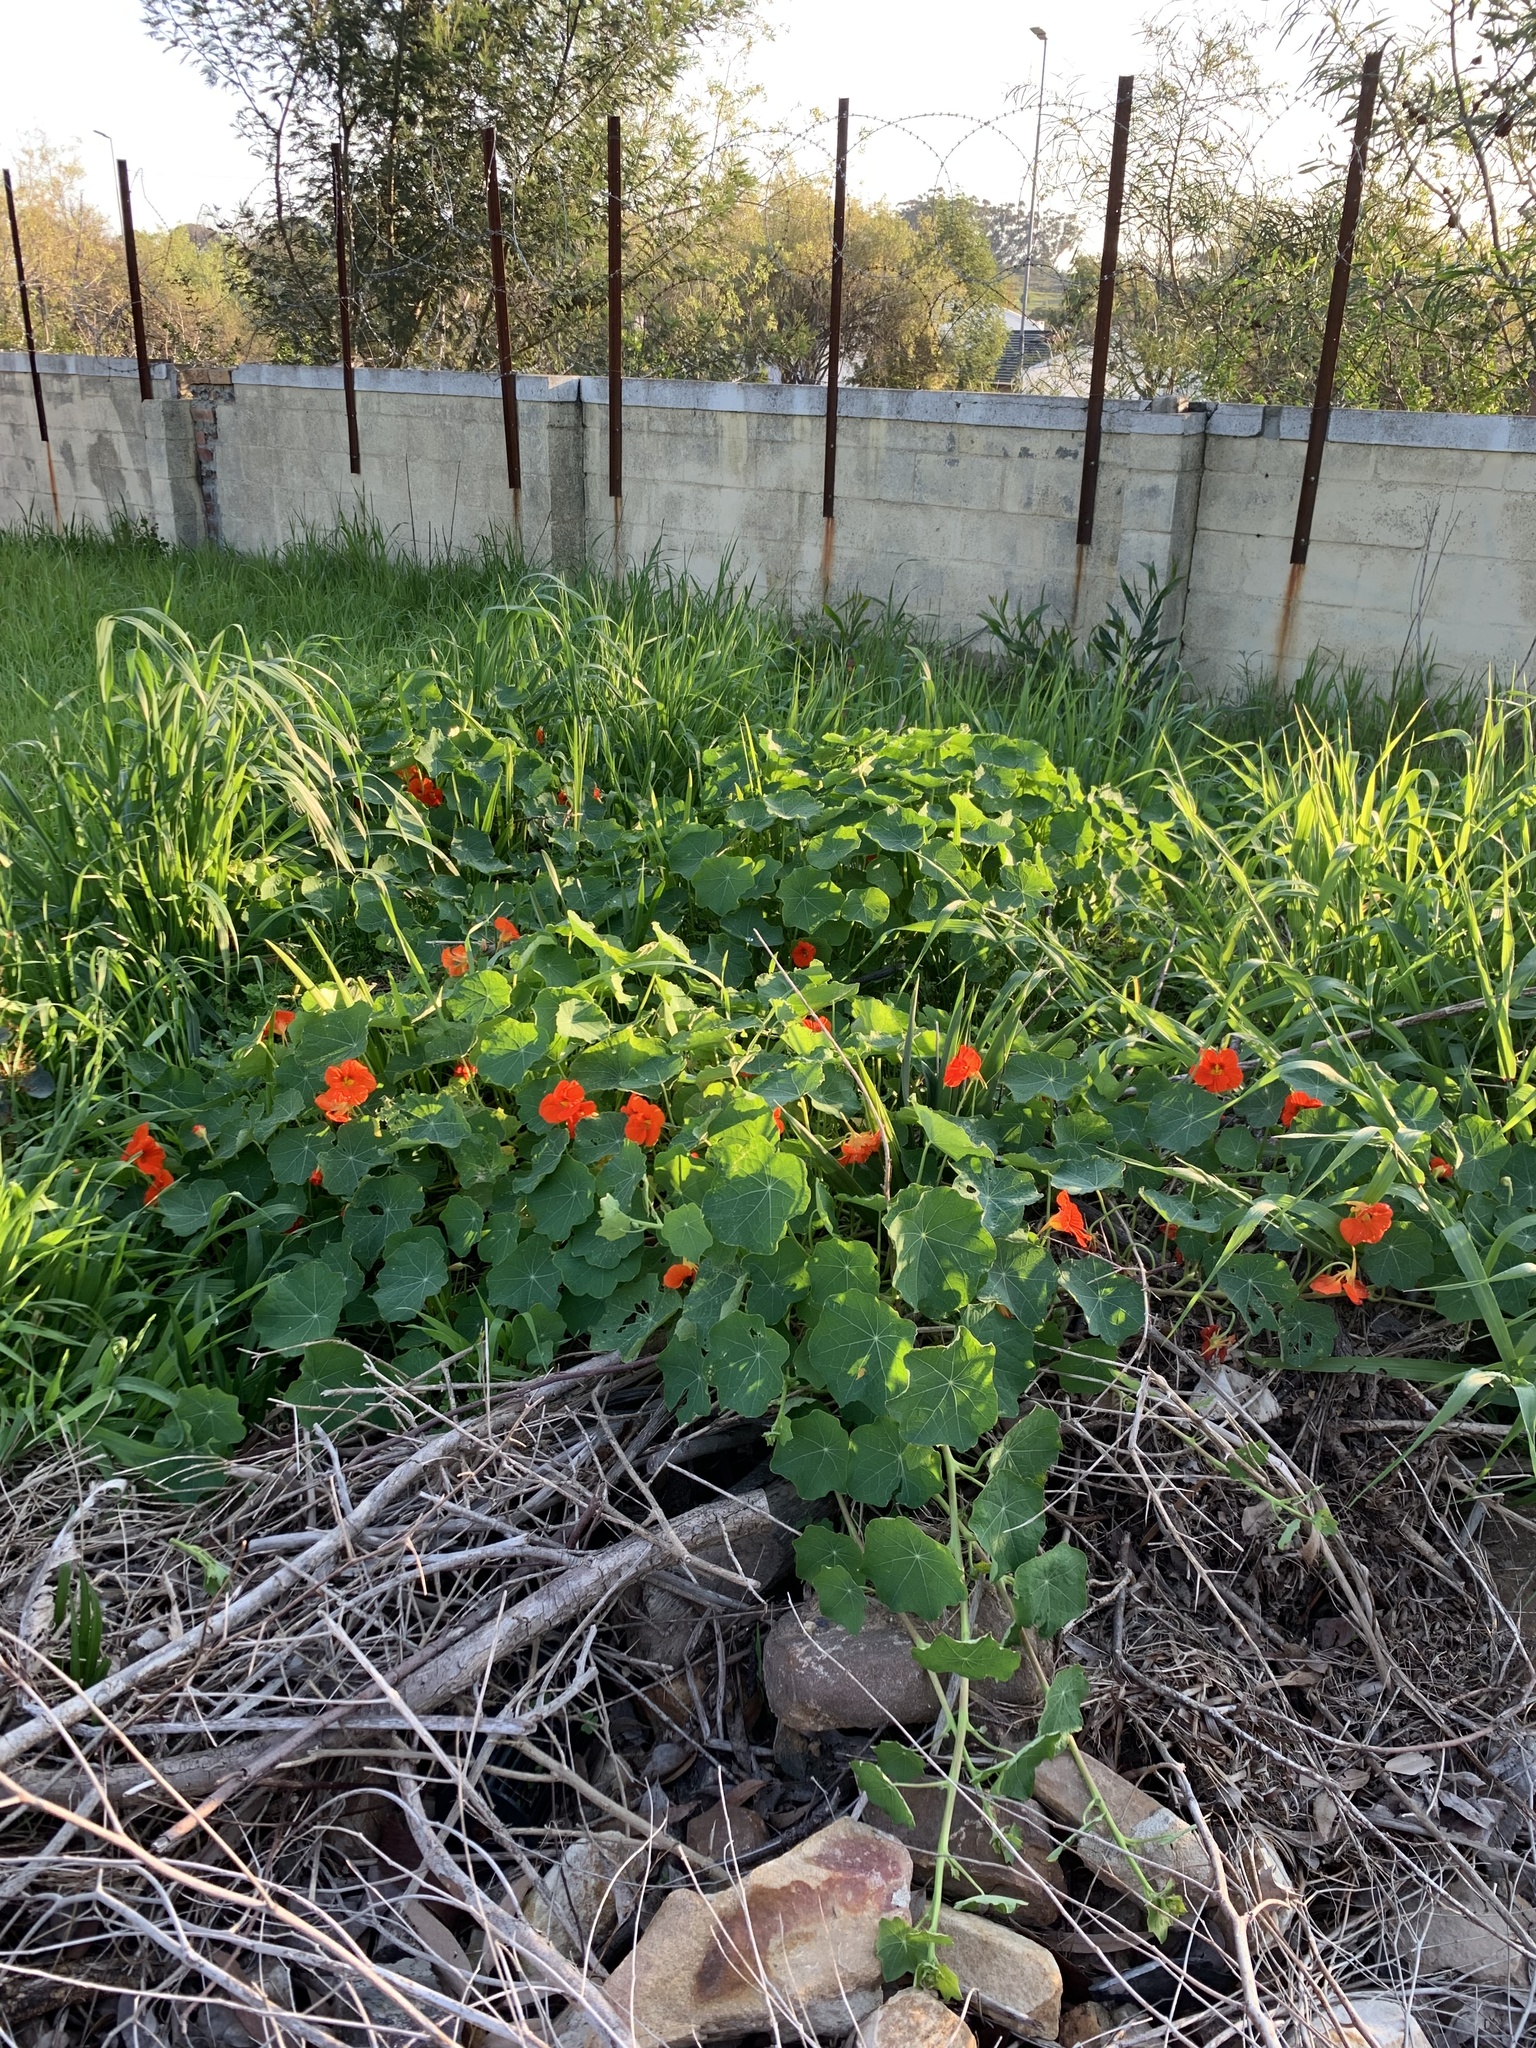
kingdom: Plantae
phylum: Tracheophyta
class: Magnoliopsida
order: Brassicales
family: Tropaeolaceae
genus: Tropaeolum
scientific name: Tropaeolum majus
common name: Nasturtium
